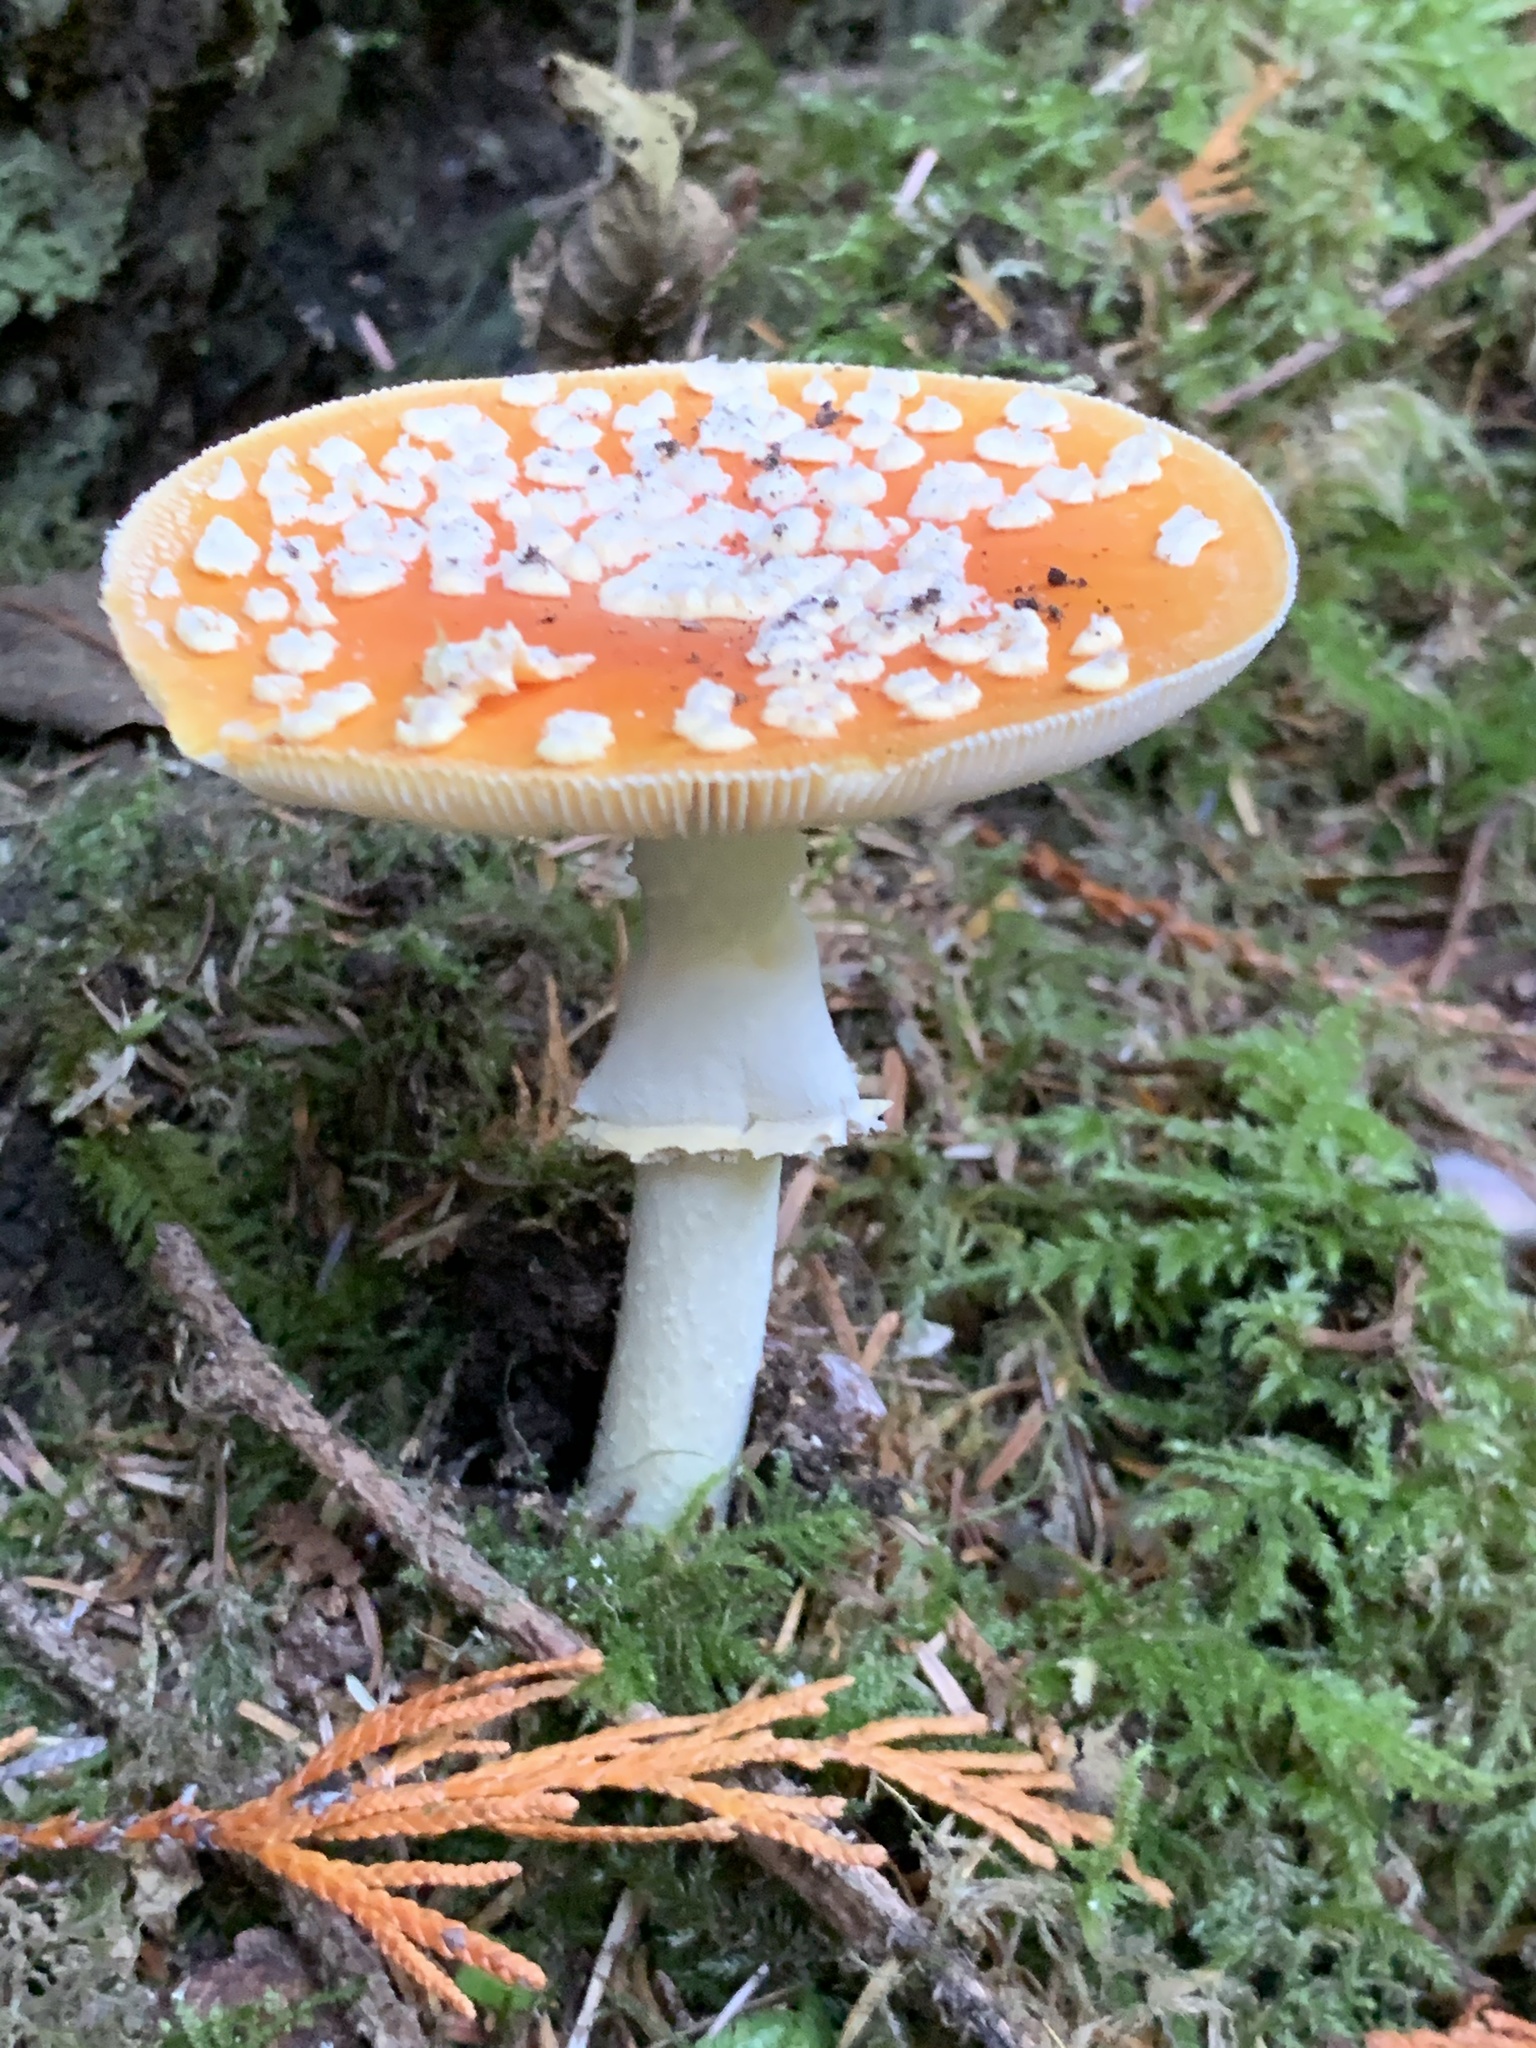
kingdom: Fungi
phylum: Basidiomycota
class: Agaricomycetes
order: Agaricales
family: Amanitaceae
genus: Amanita
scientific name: Amanita muscaria
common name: Fly agaric
